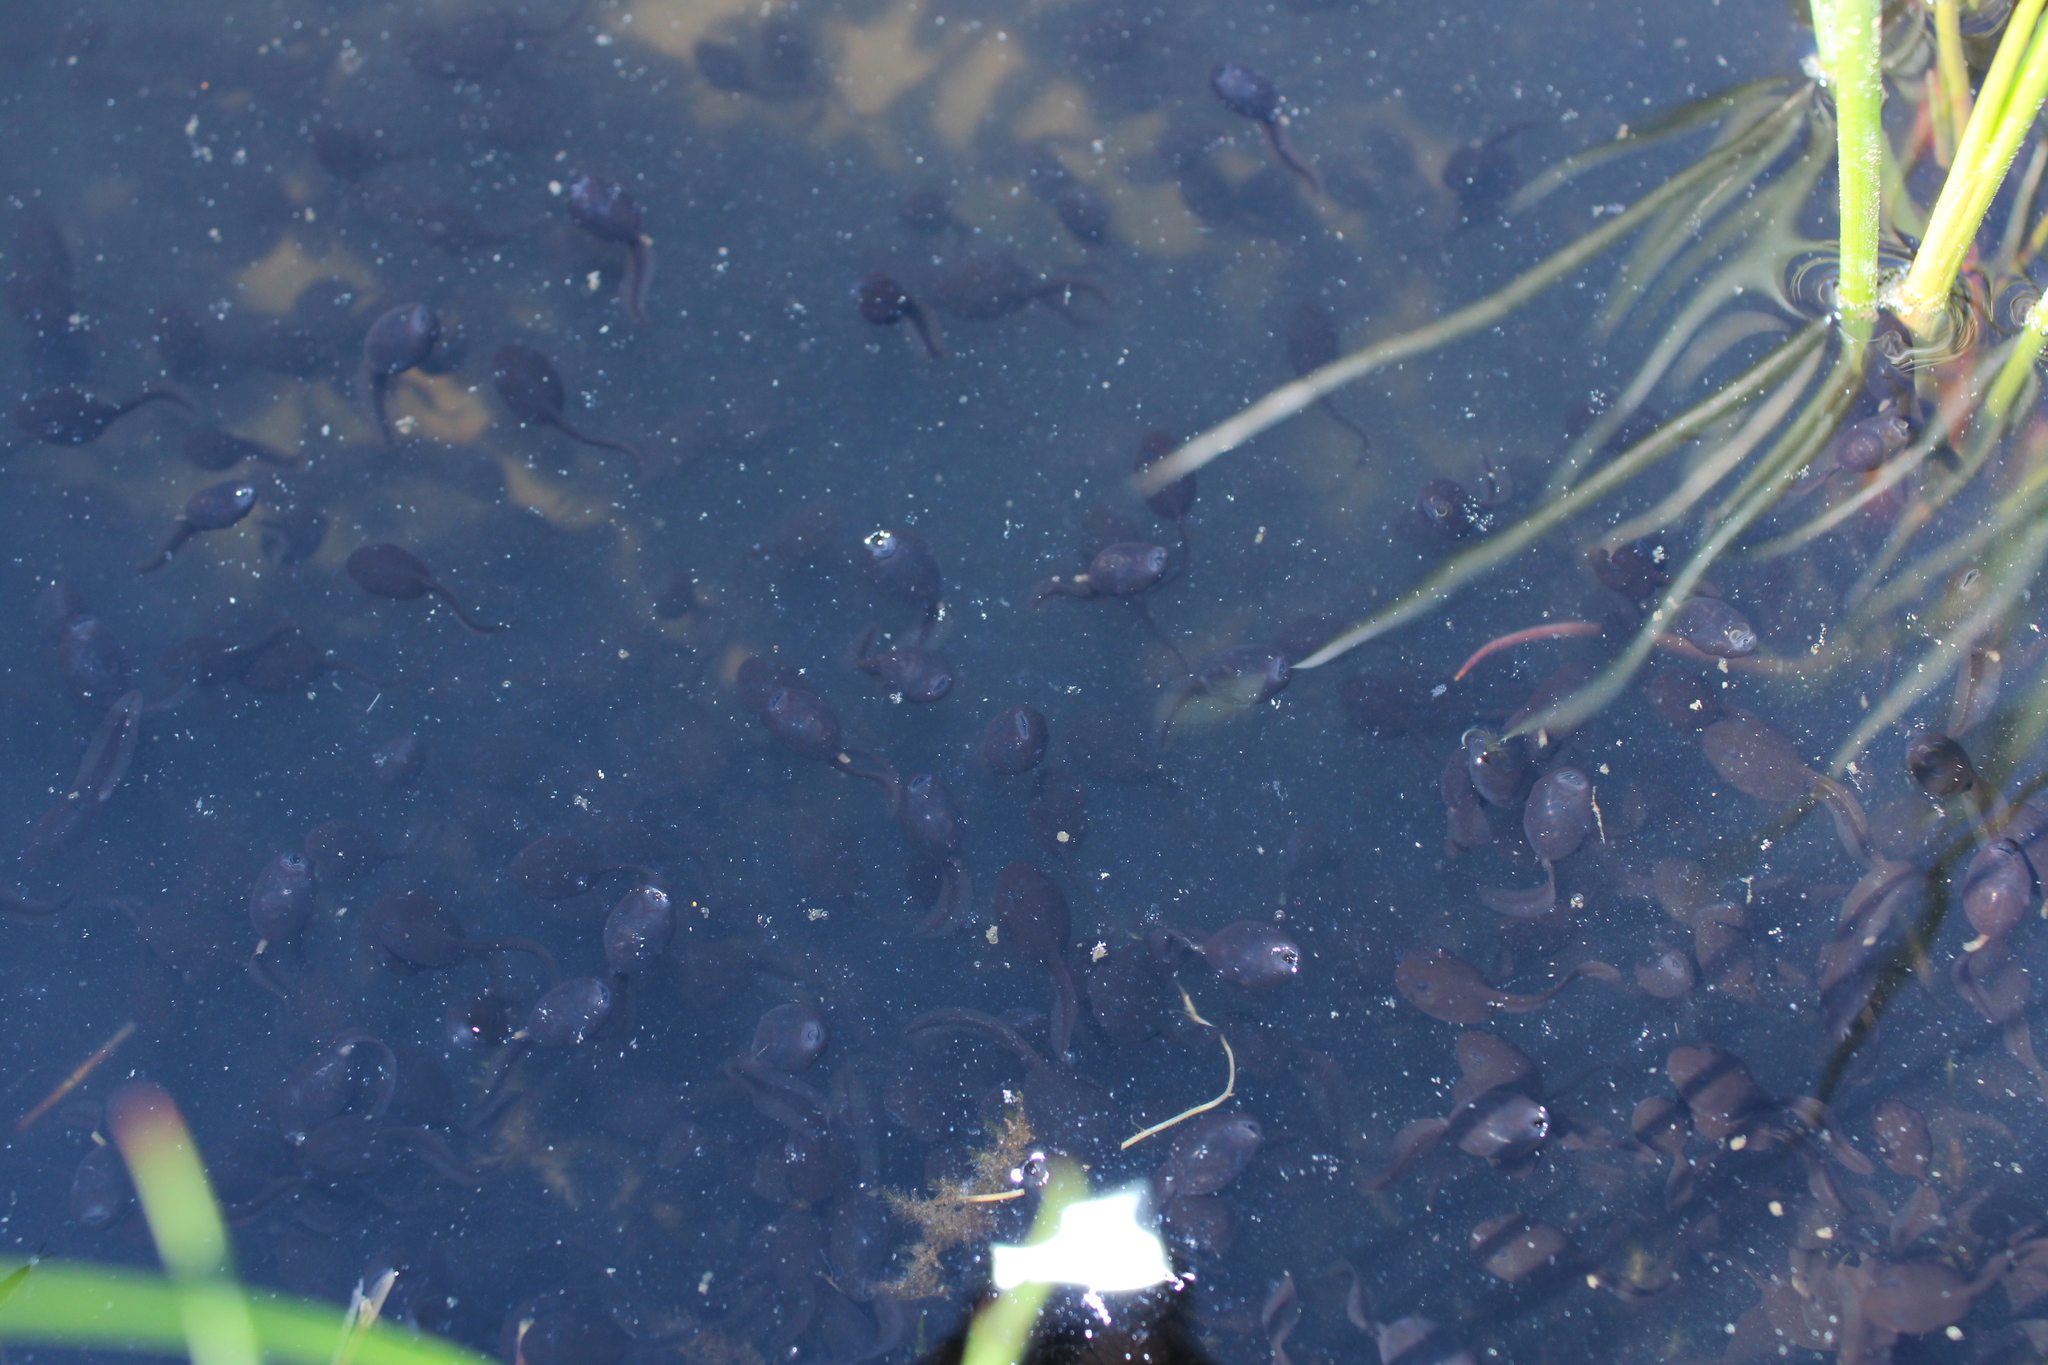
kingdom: Animalia
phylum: Chordata
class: Amphibia
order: Anura
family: Bufonidae
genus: Bufo
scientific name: Bufo bufo
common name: Common toad
